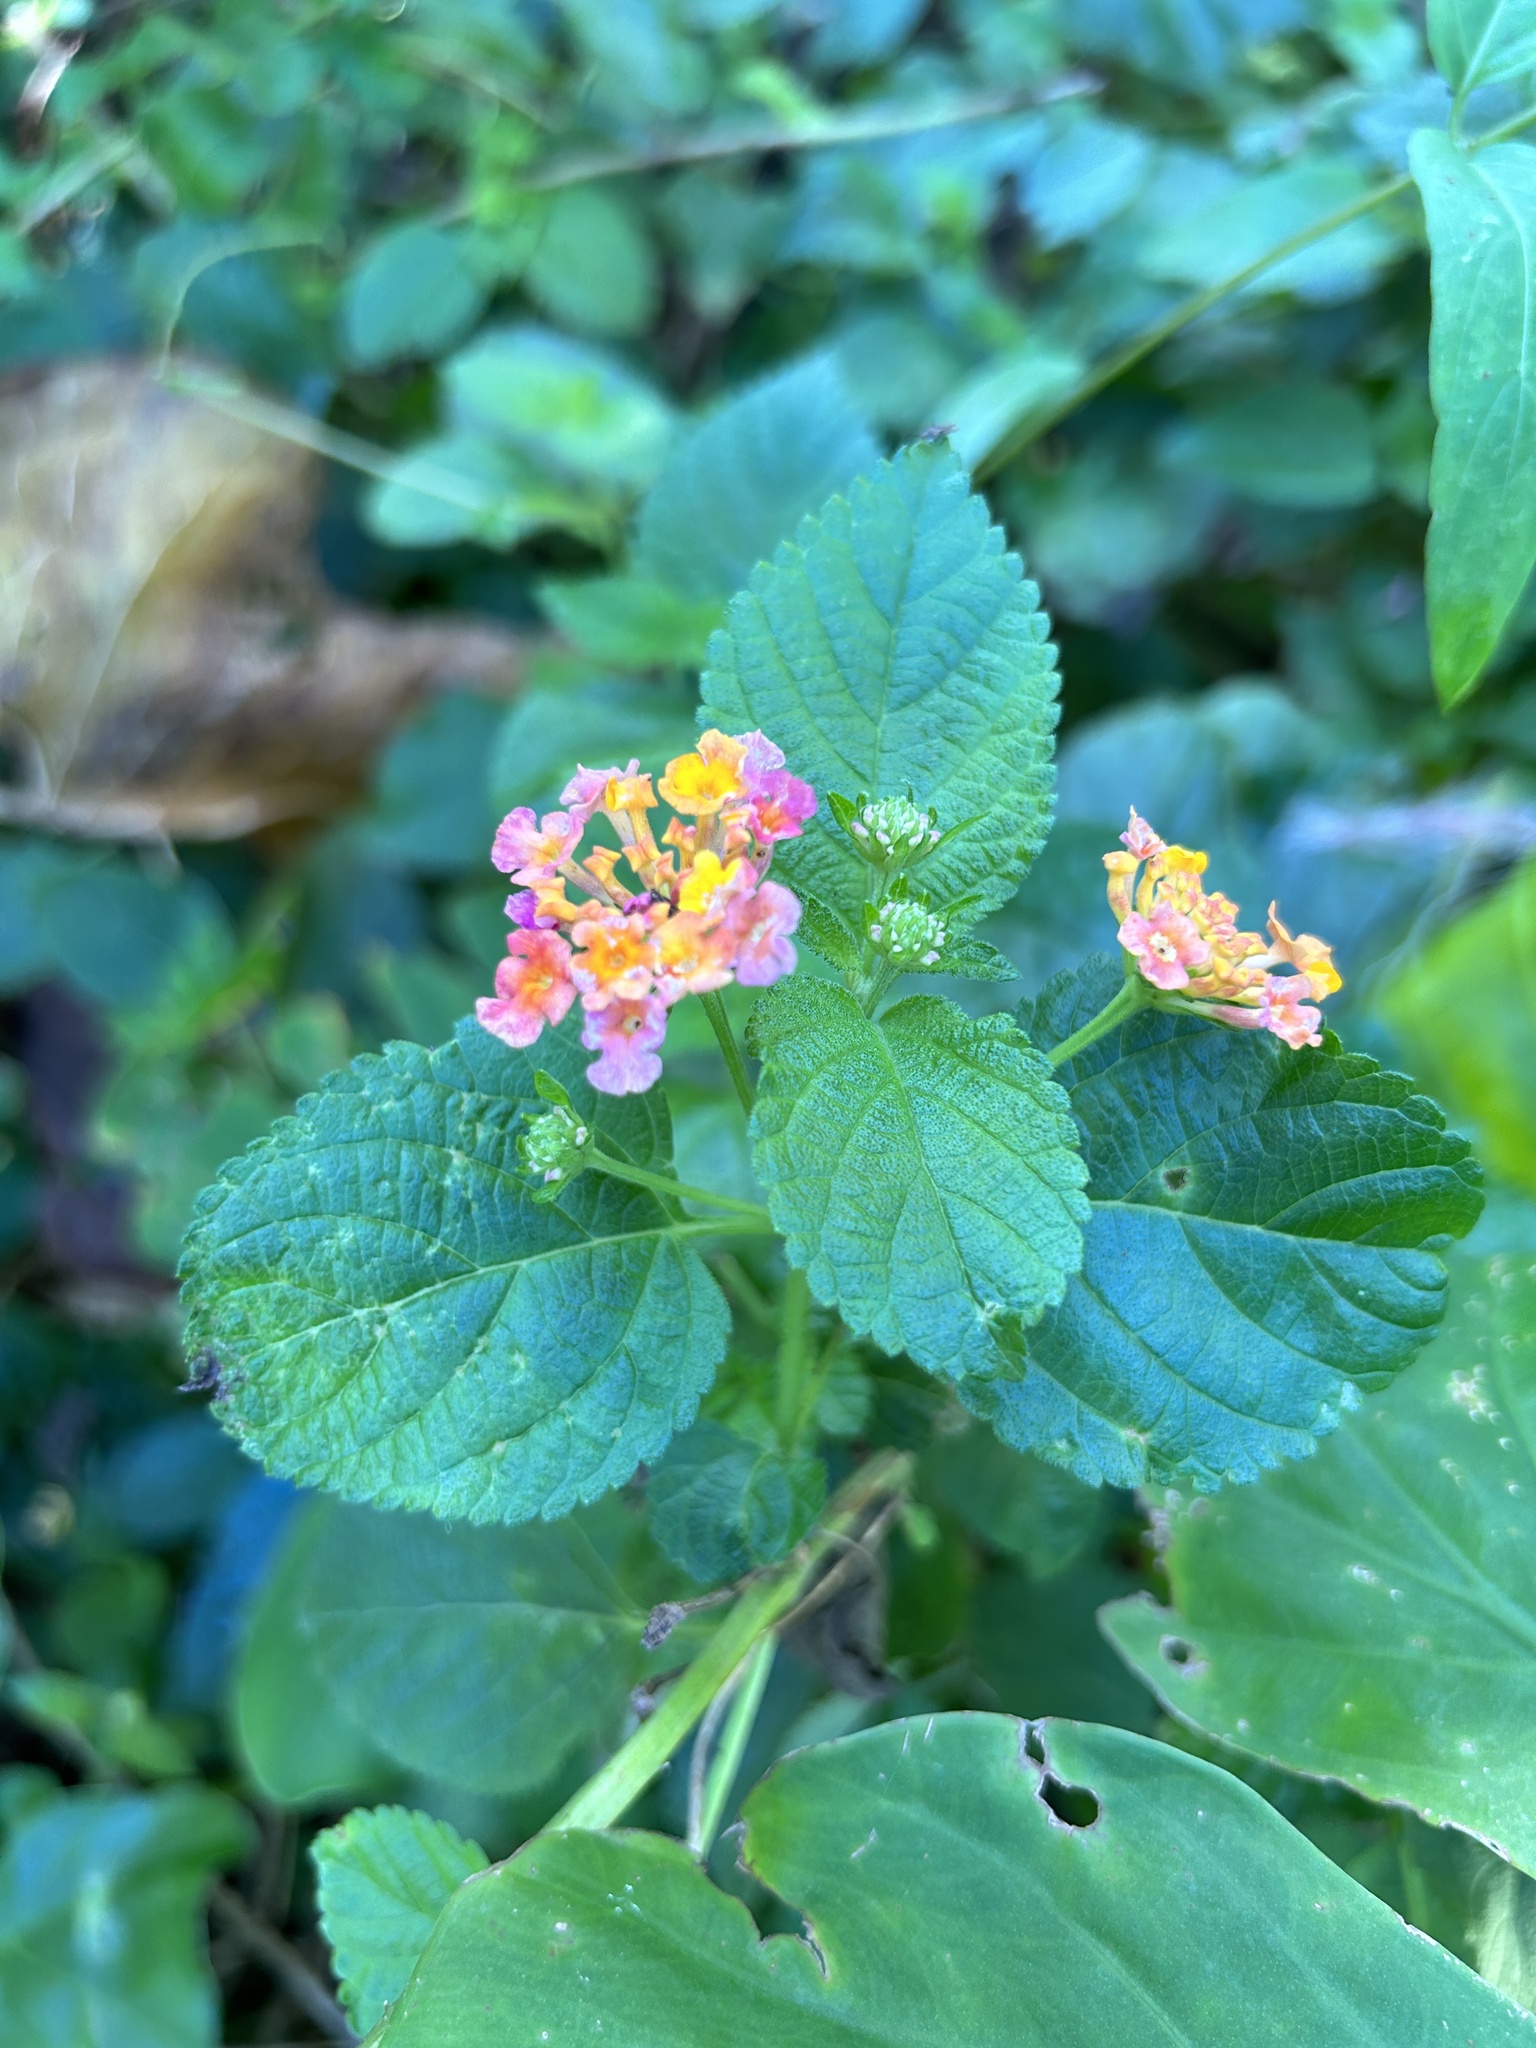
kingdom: Plantae
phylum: Tracheophyta
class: Magnoliopsida
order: Lamiales
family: Verbenaceae
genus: Lantana
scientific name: Lantana camara
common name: Lantana
